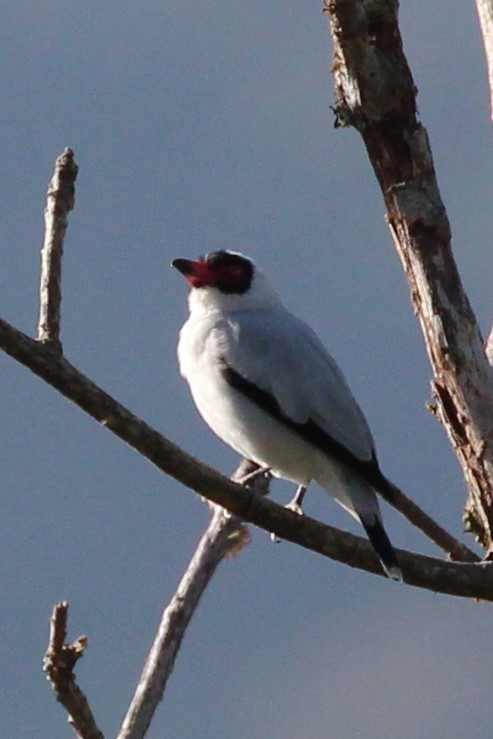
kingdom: Animalia
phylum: Chordata
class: Aves
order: Passeriformes
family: Cotingidae
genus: Tityra
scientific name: Tityra semifasciata
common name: Masked tityra
